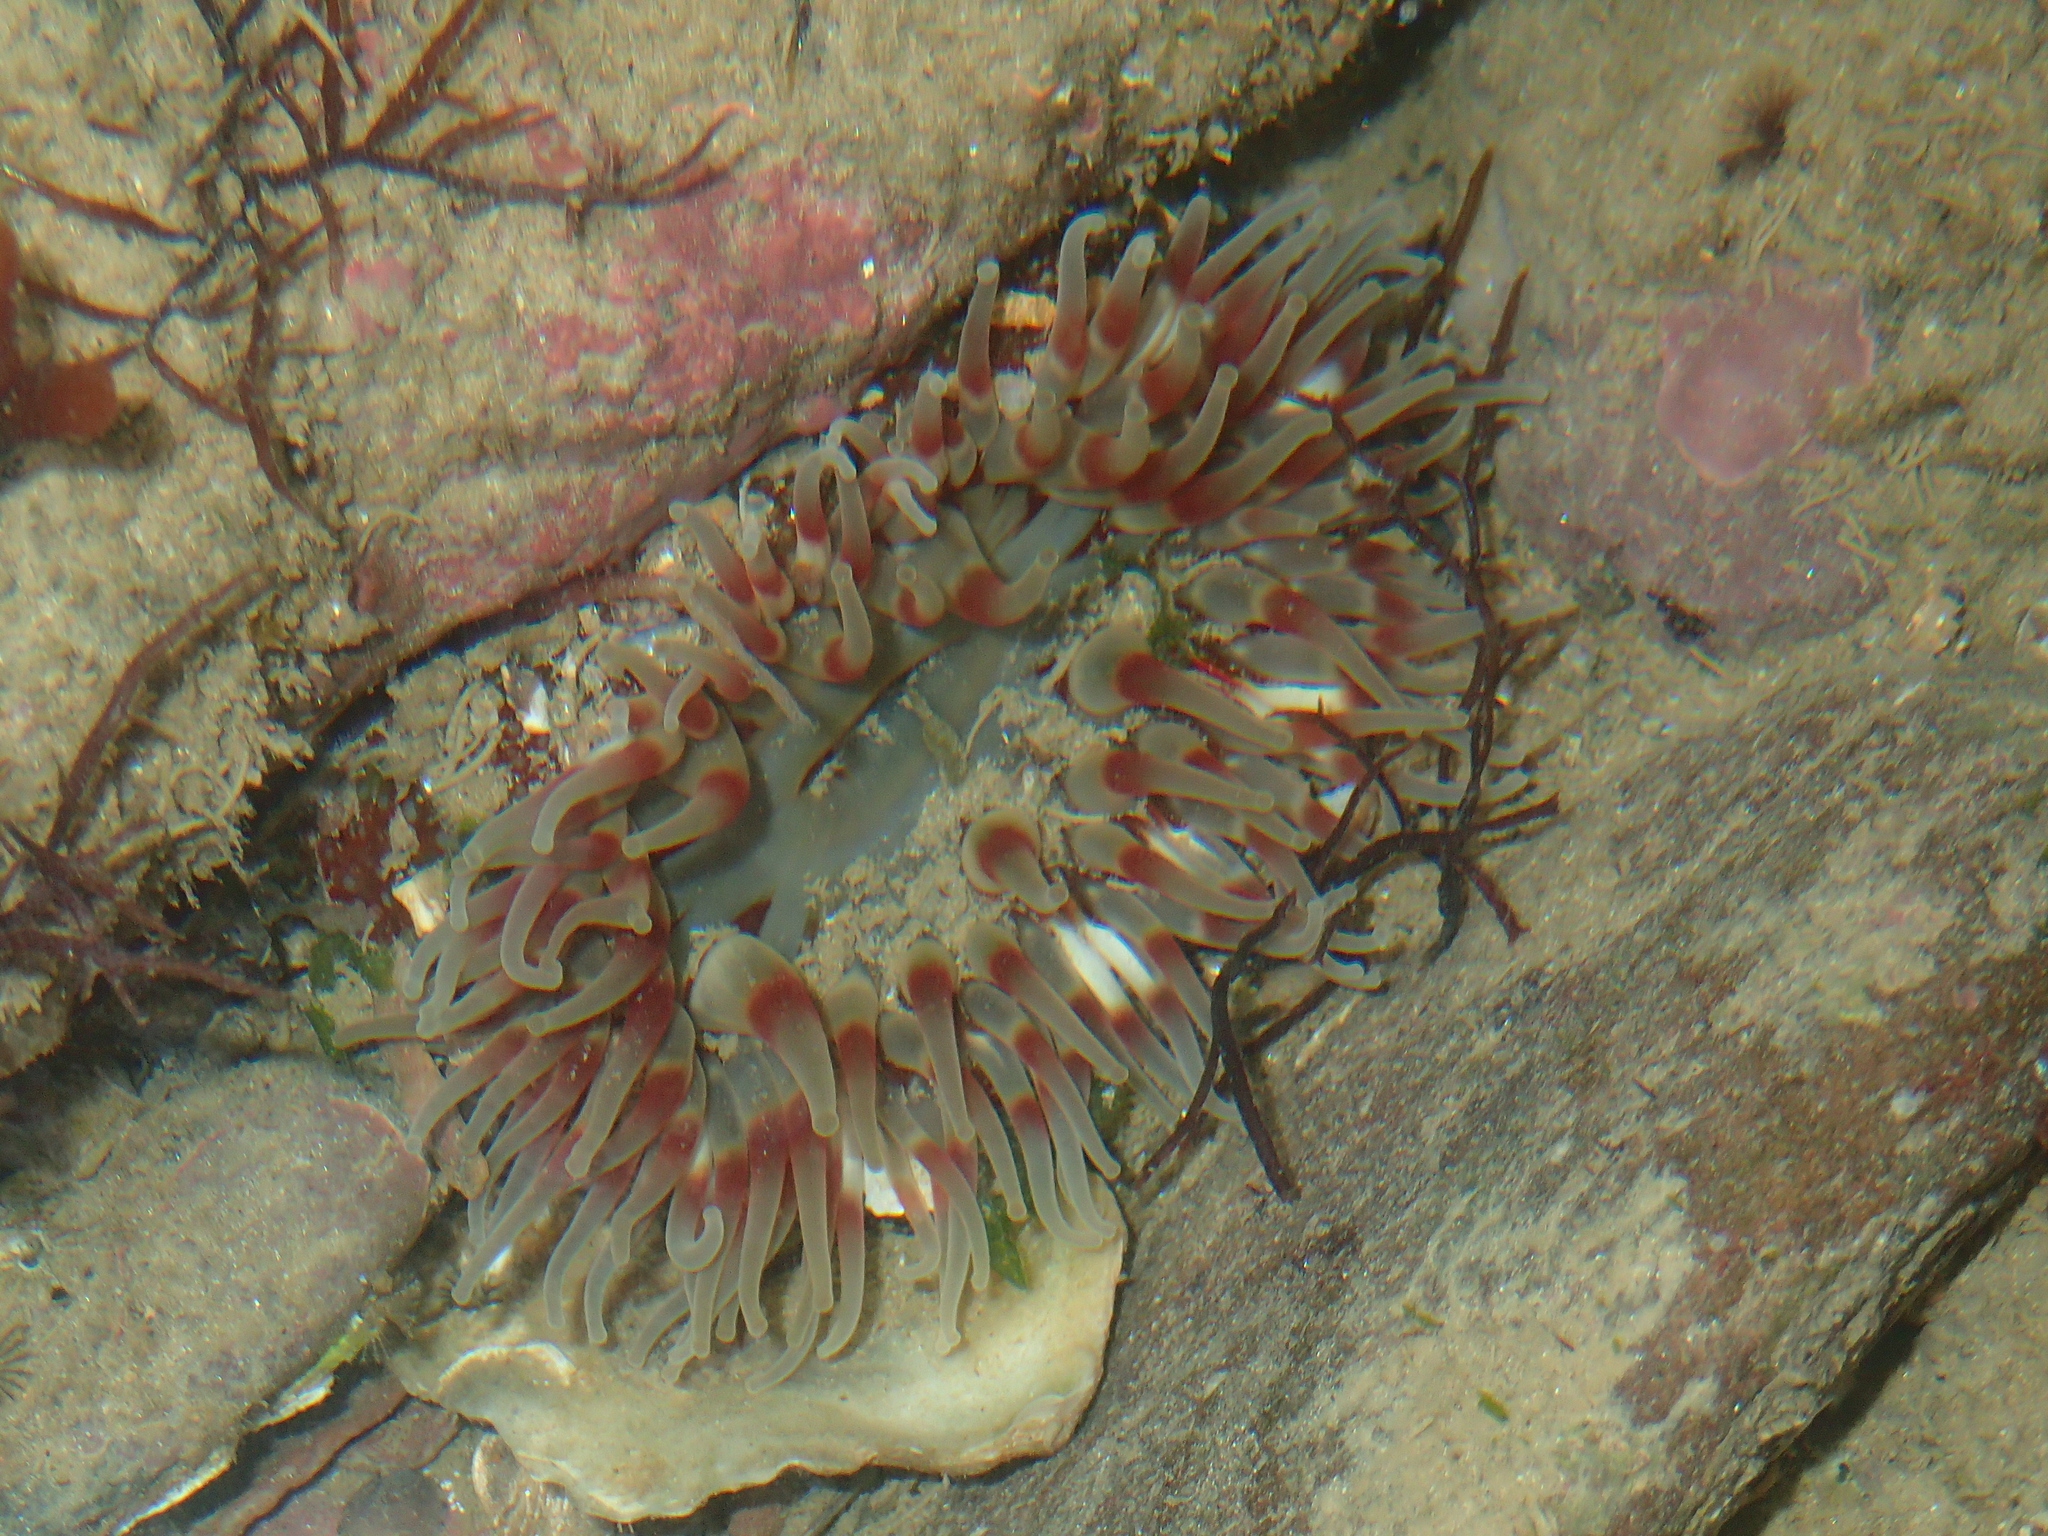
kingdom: Animalia
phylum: Cnidaria
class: Anthozoa
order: Actiniaria
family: Actiniidae
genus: Urticina
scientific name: Urticina felina
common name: Dahlia anemone
